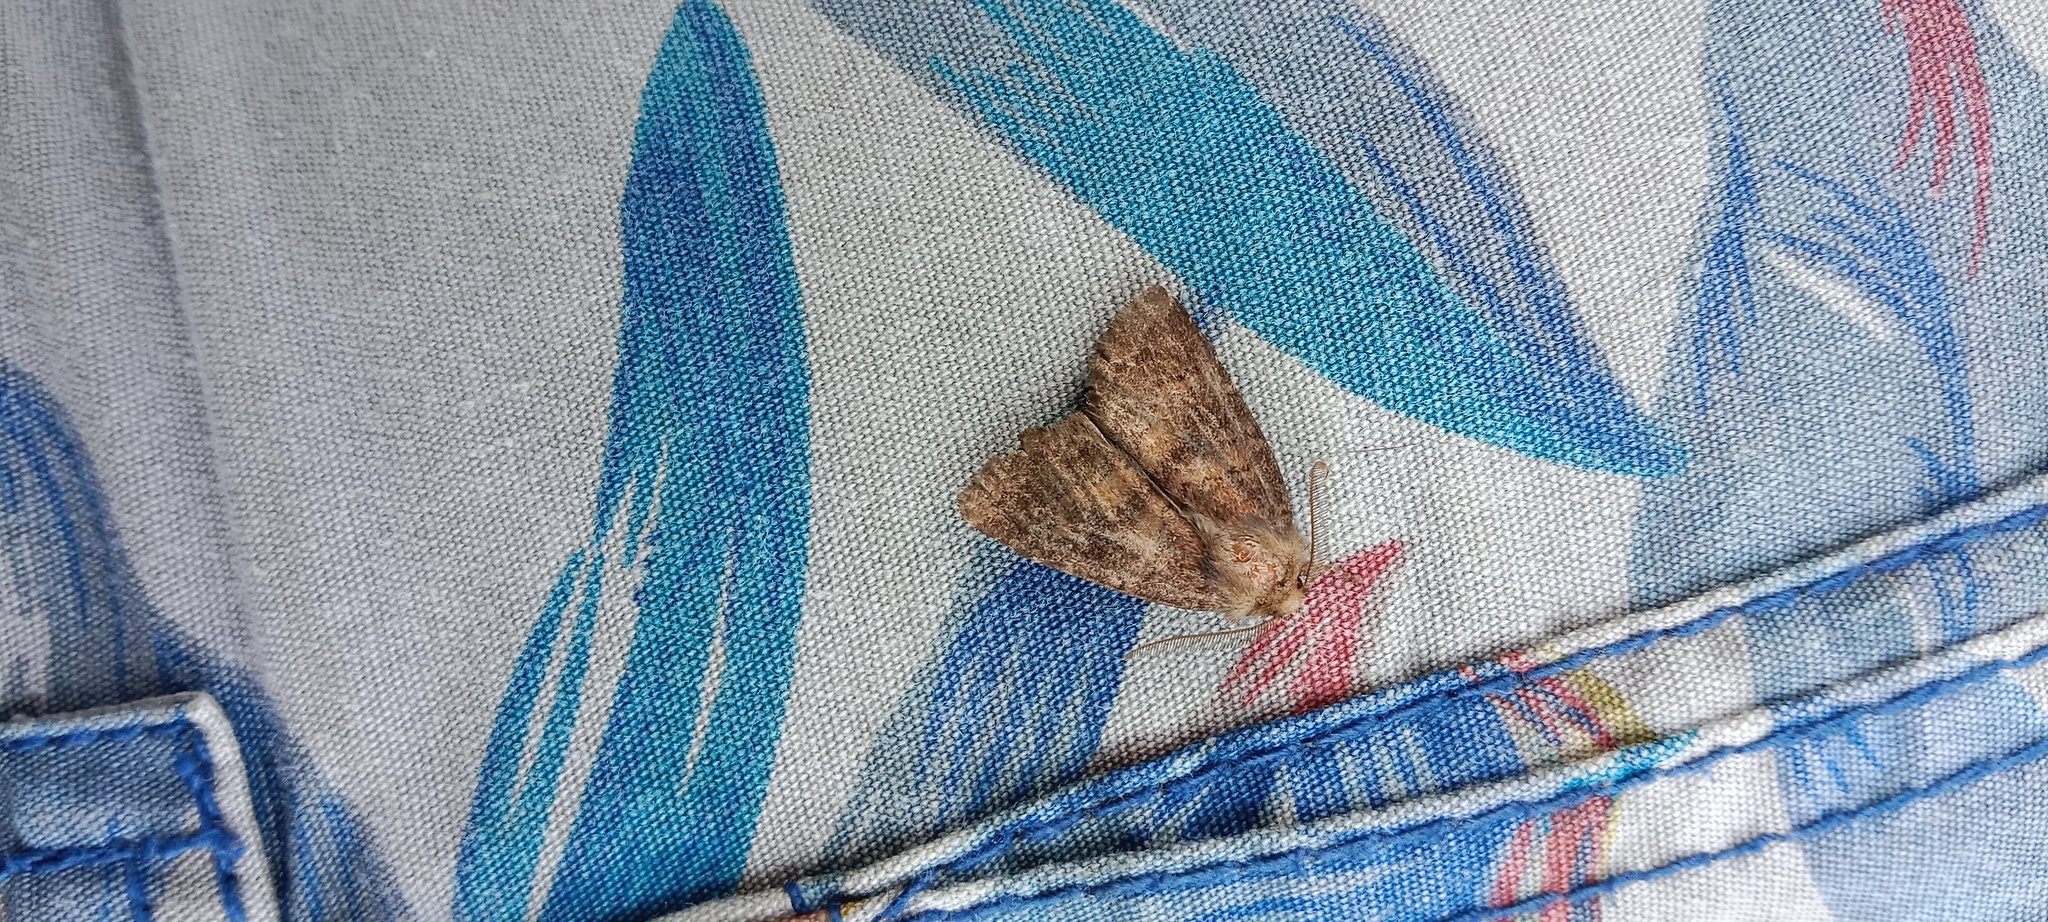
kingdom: Animalia
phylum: Arthropoda
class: Insecta
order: Lepidoptera
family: Noctuidae
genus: Charanyca
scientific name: Charanyca ferruginea
